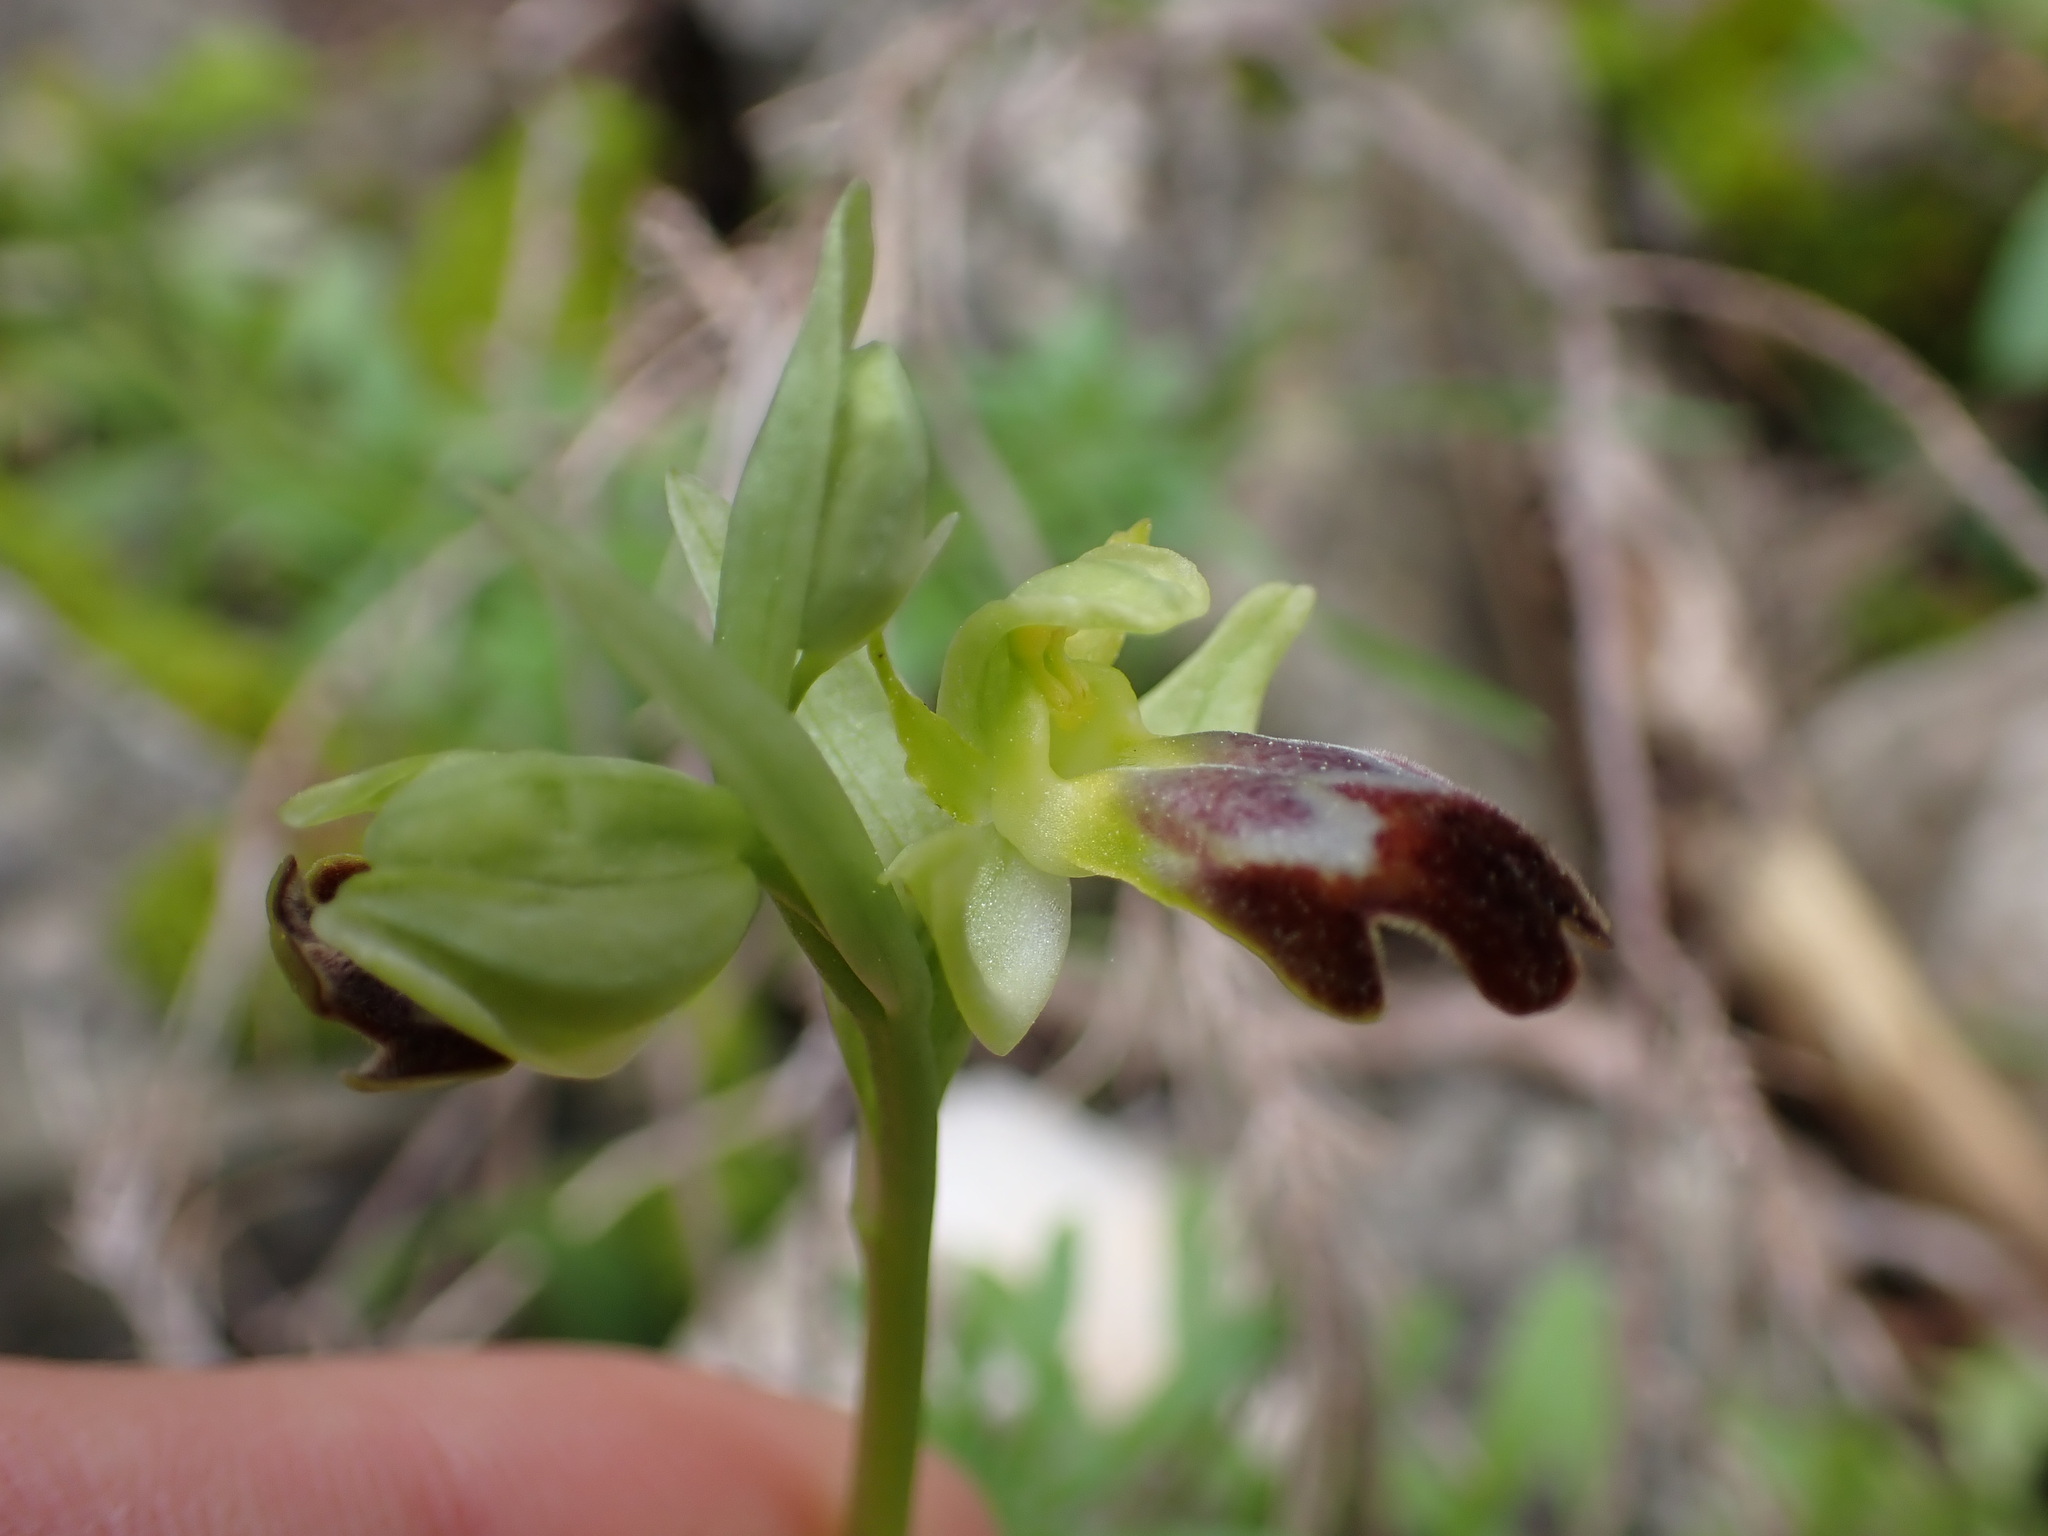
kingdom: Plantae
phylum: Tracheophyta
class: Liliopsida
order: Asparagales
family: Orchidaceae
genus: Ophrys
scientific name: Ophrys fusca
